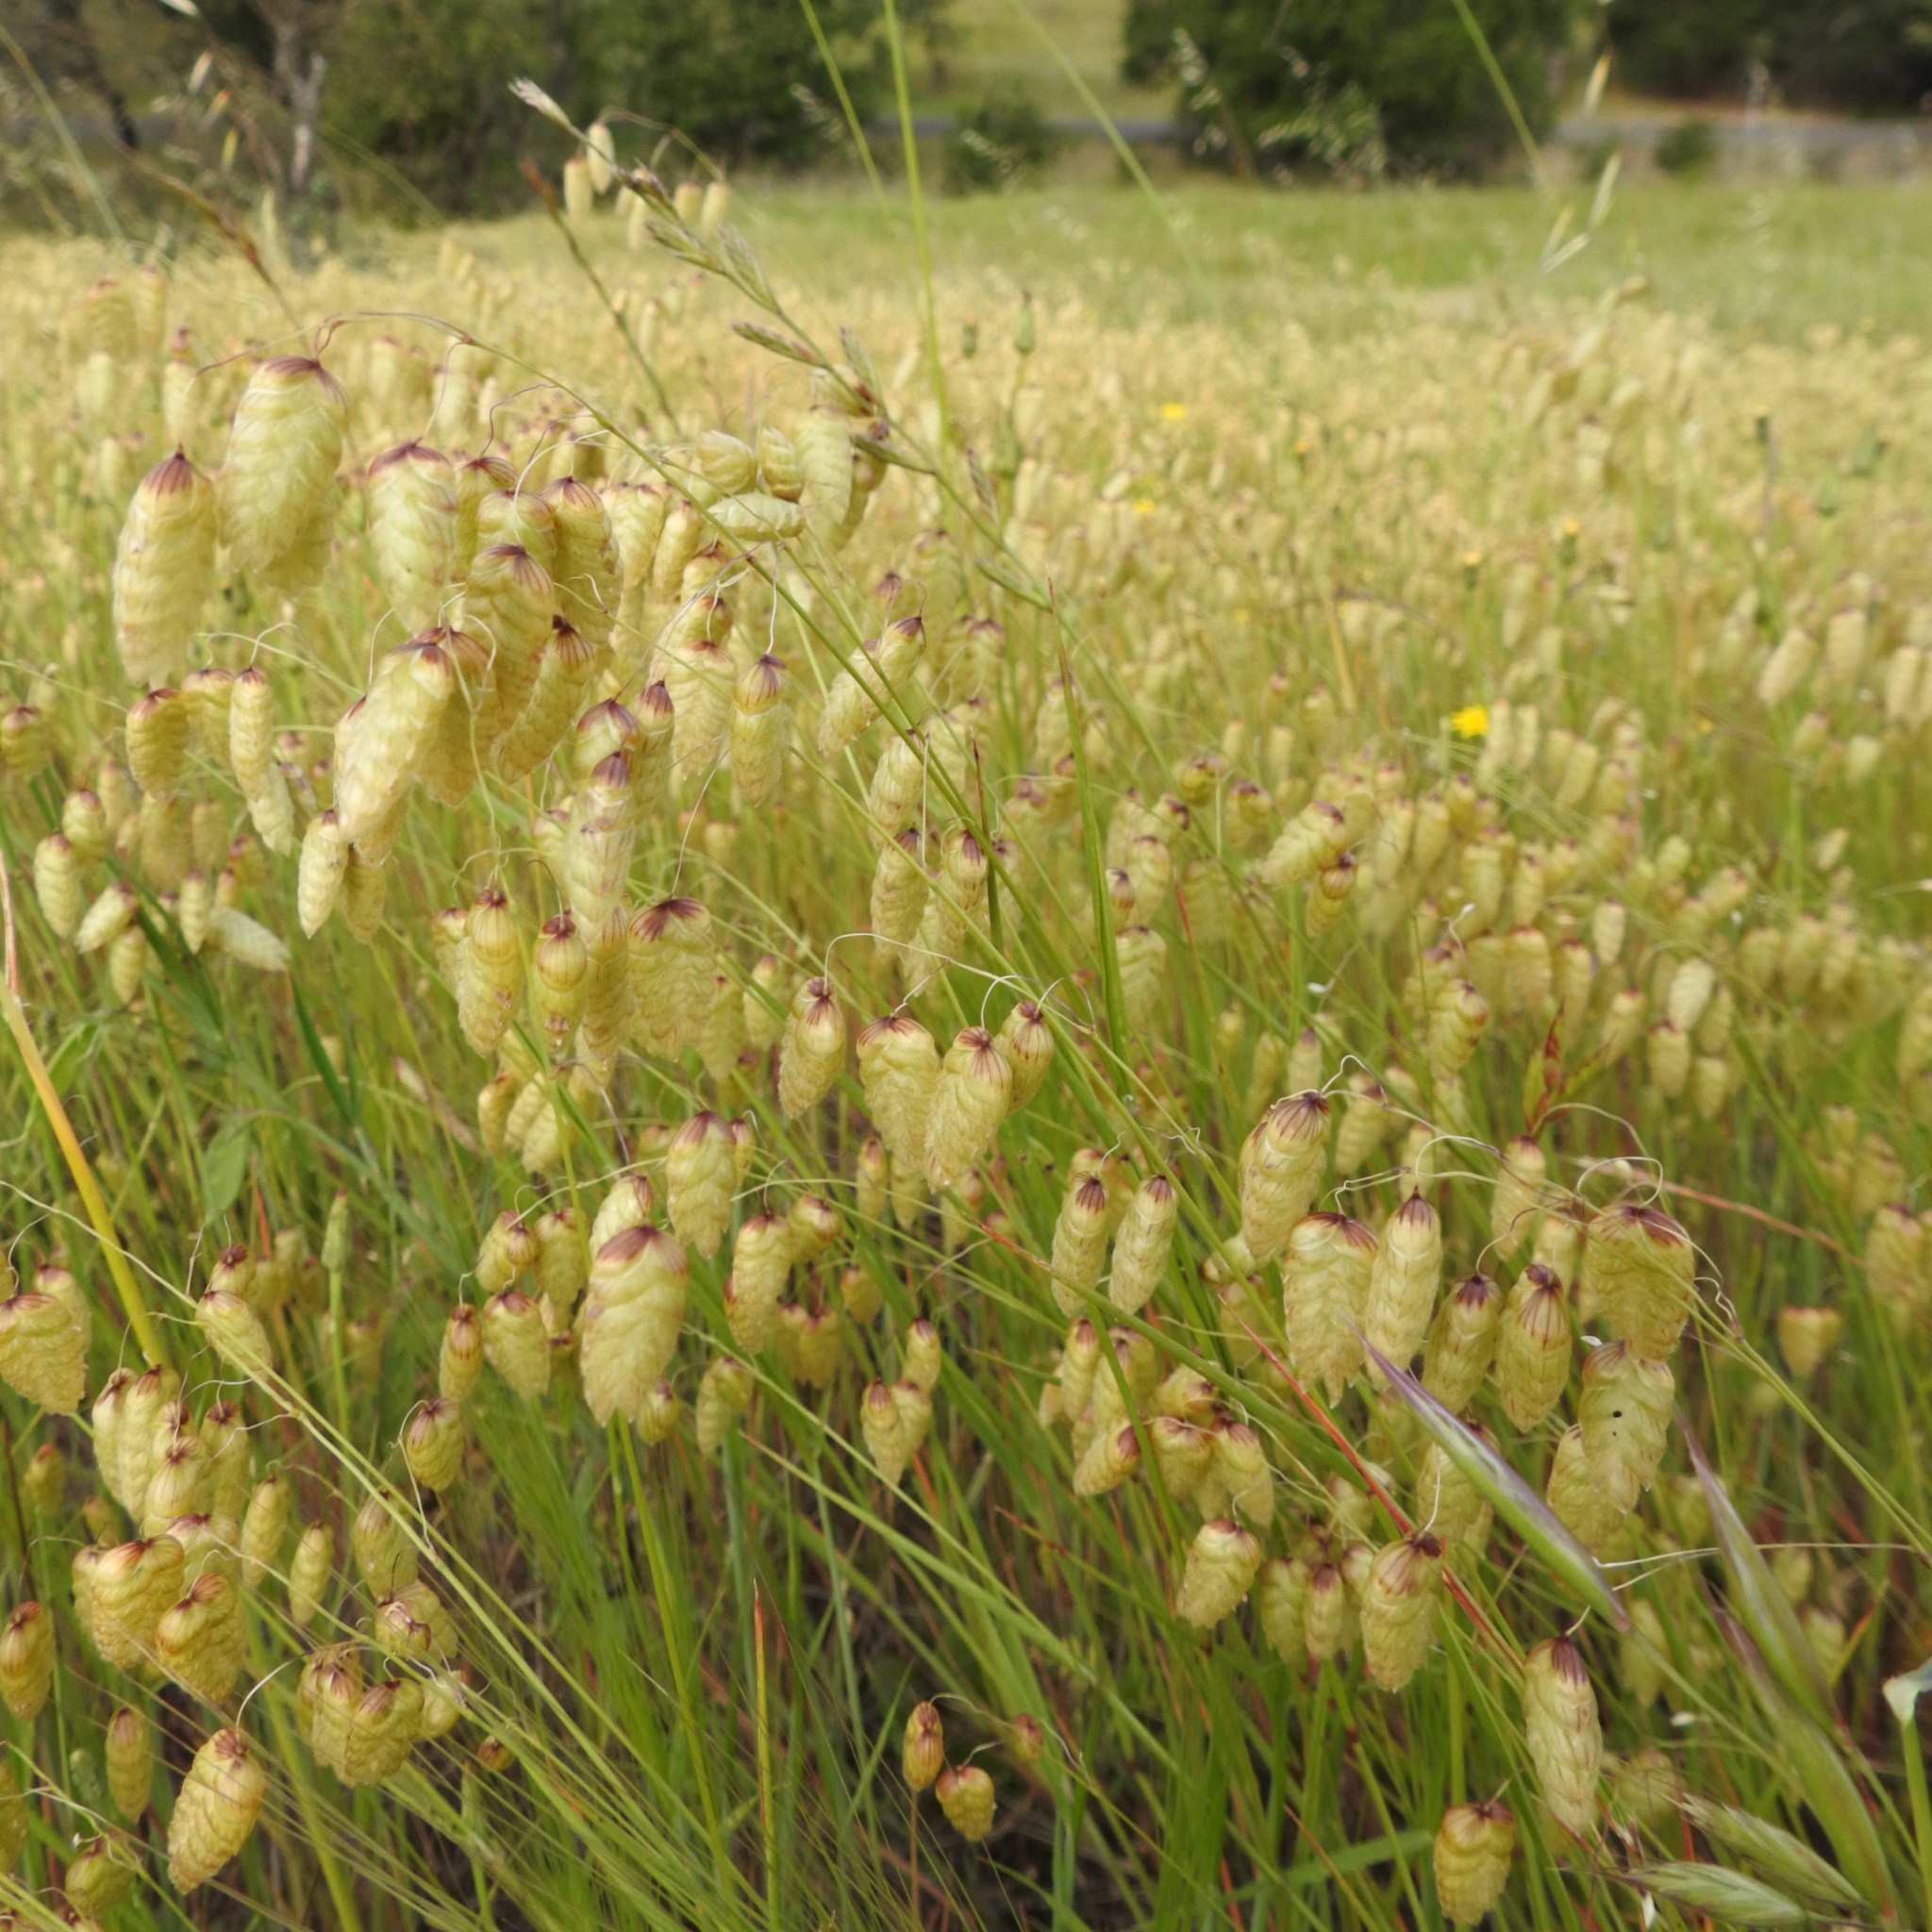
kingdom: Plantae
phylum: Tracheophyta
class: Liliopsida
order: Poales
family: Poaceae
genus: Briza
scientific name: Briza maxima
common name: Big quakinggrass
